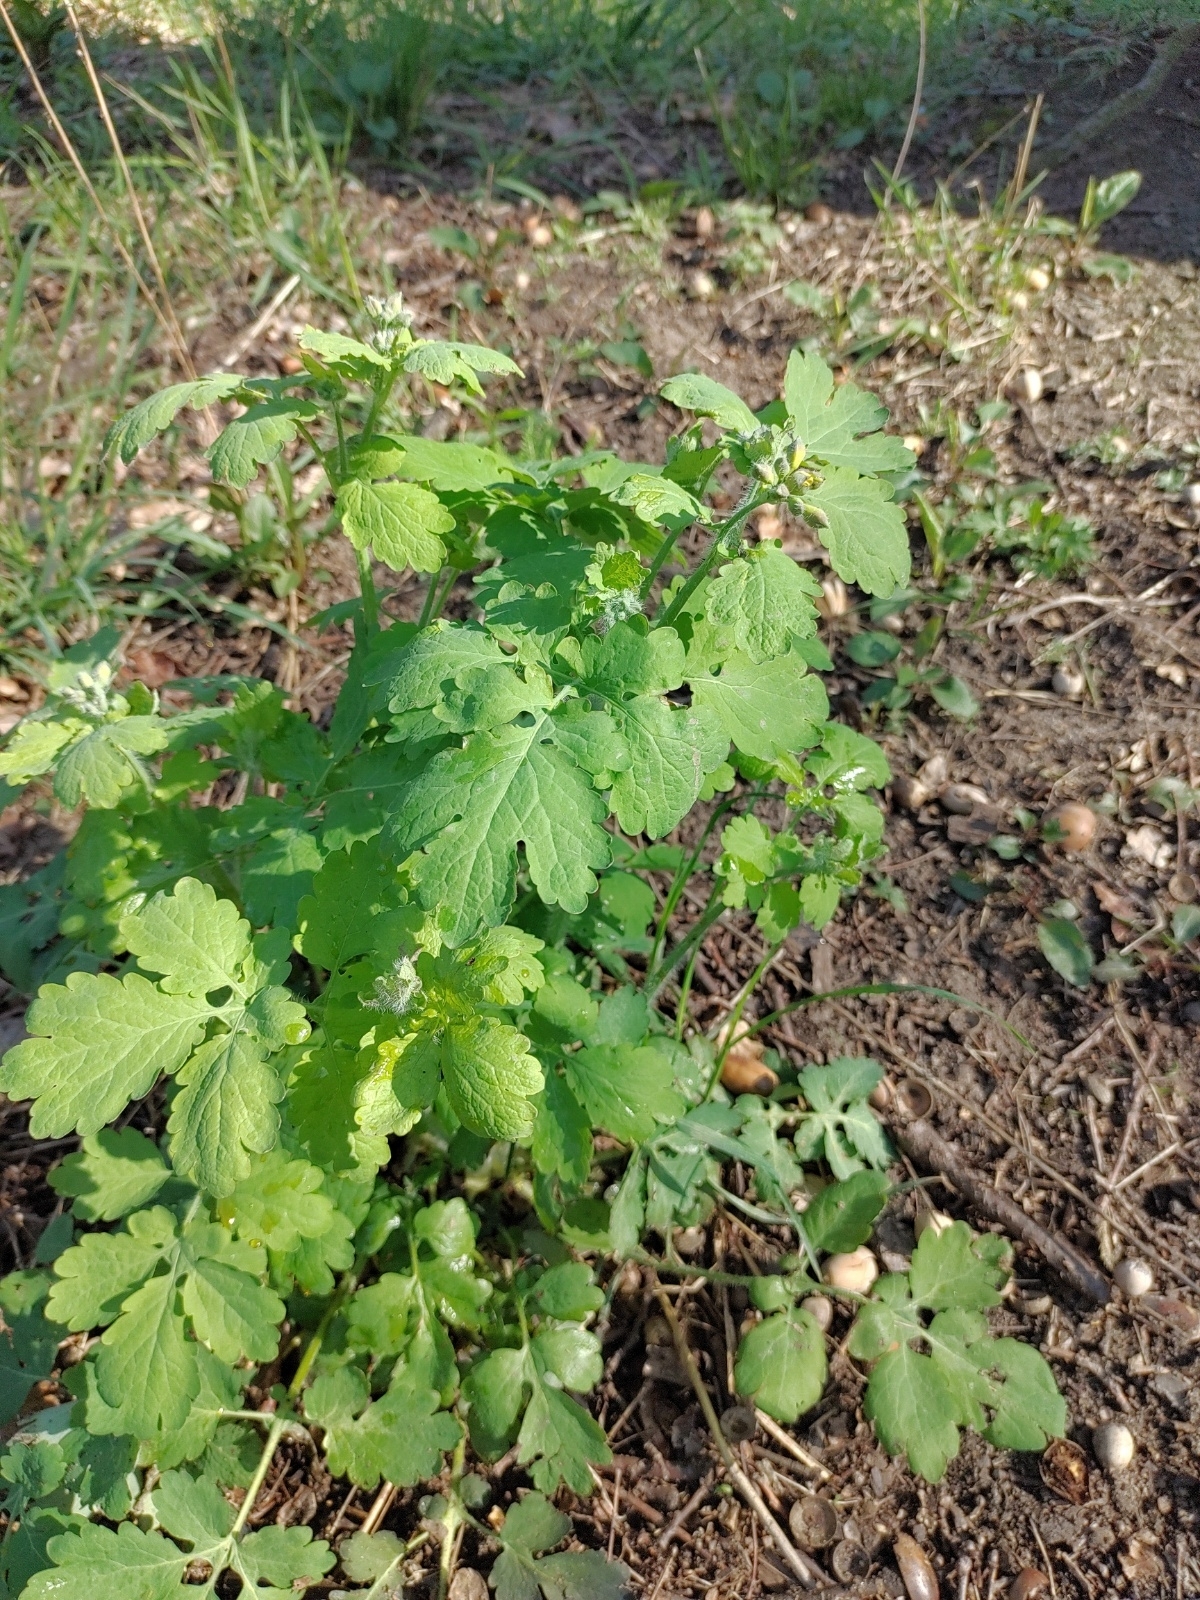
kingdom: Plantae
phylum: Tracheophyta
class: Magnoliopsida
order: Ranunculales
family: Papaveraceae
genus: Chelidonium
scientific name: Chelidonium majus
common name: Greater celandine
